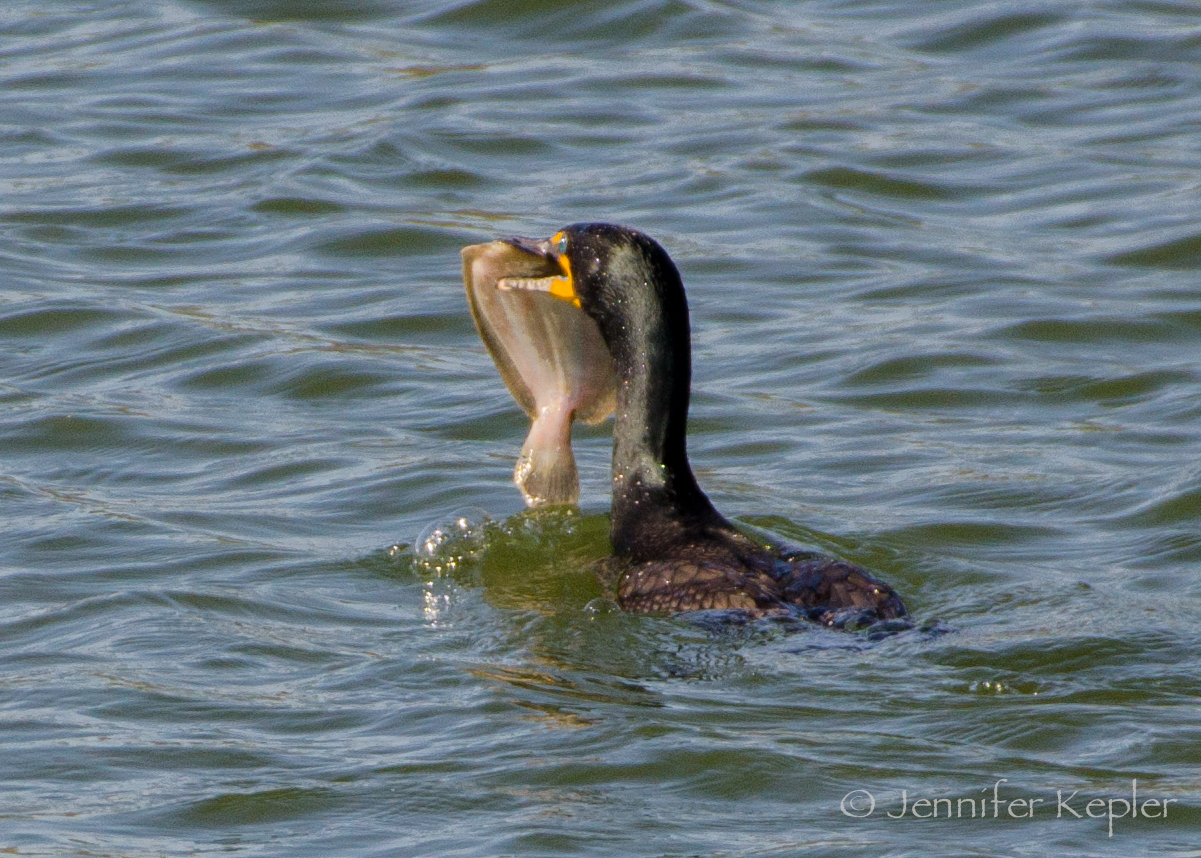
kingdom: Animalia
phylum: Chordata
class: Aves
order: Suliformes
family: Phalacrocoracidae
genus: Phalacrocorax
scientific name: Phalacrocorax auritus
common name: Double-crested cormorant
